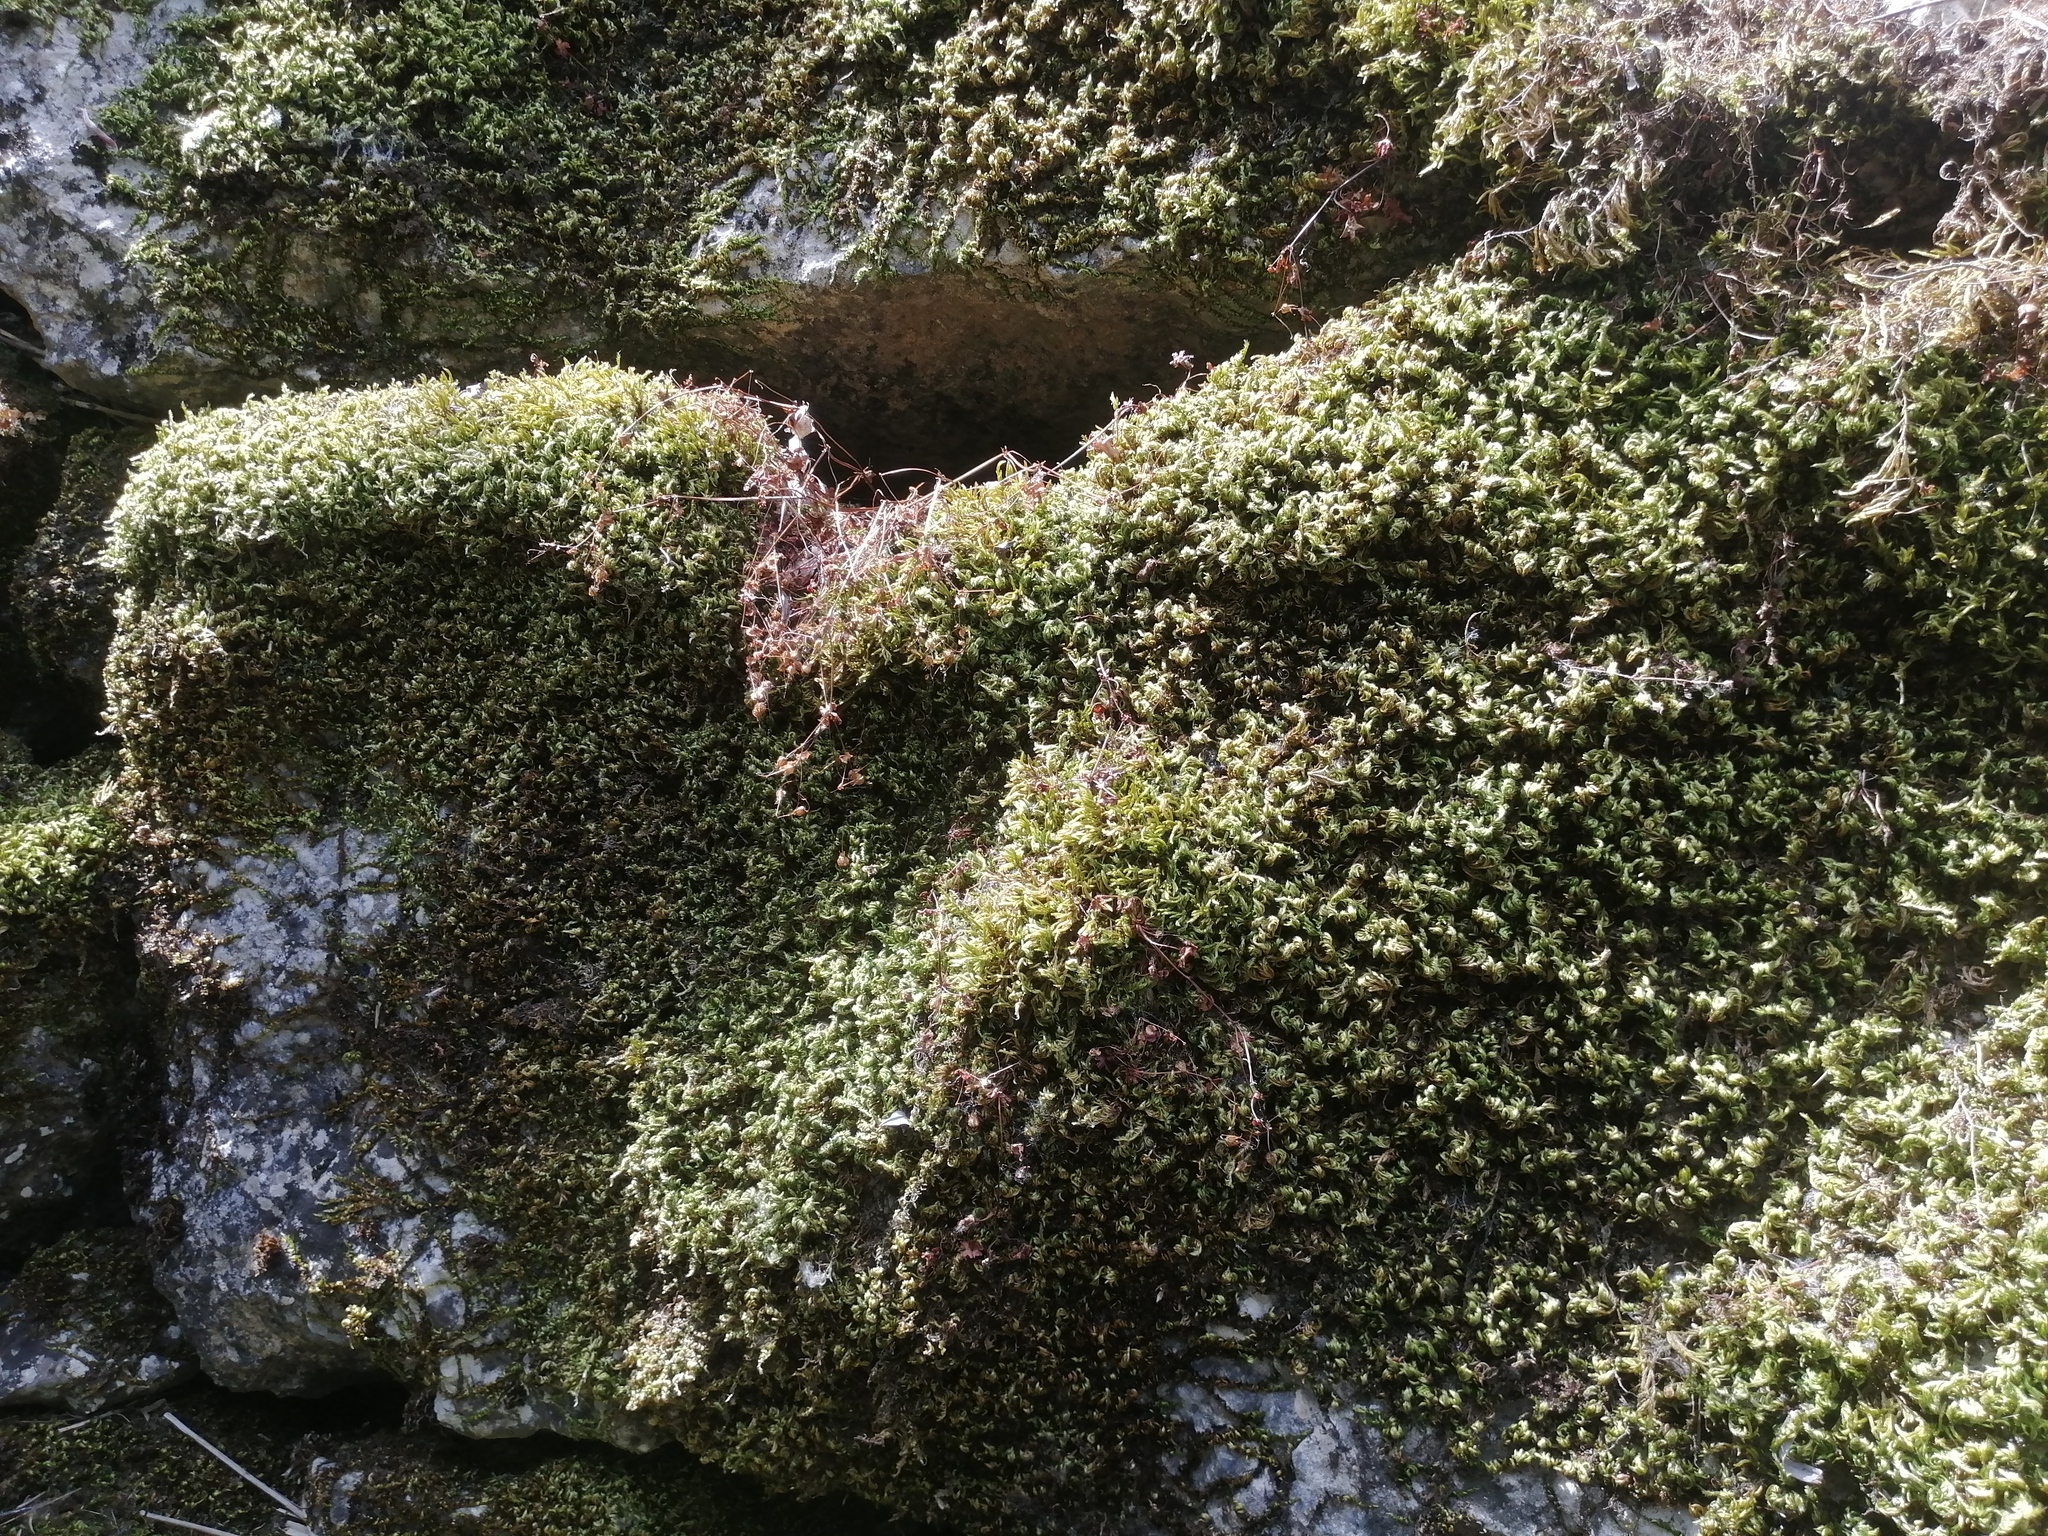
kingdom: Plantae
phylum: Bryophyta
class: Bryopsida
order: Hypnales
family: Brachytheciaceae
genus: Homalothecium
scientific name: Homalothecium sericeum
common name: Silky wall feather-moss
